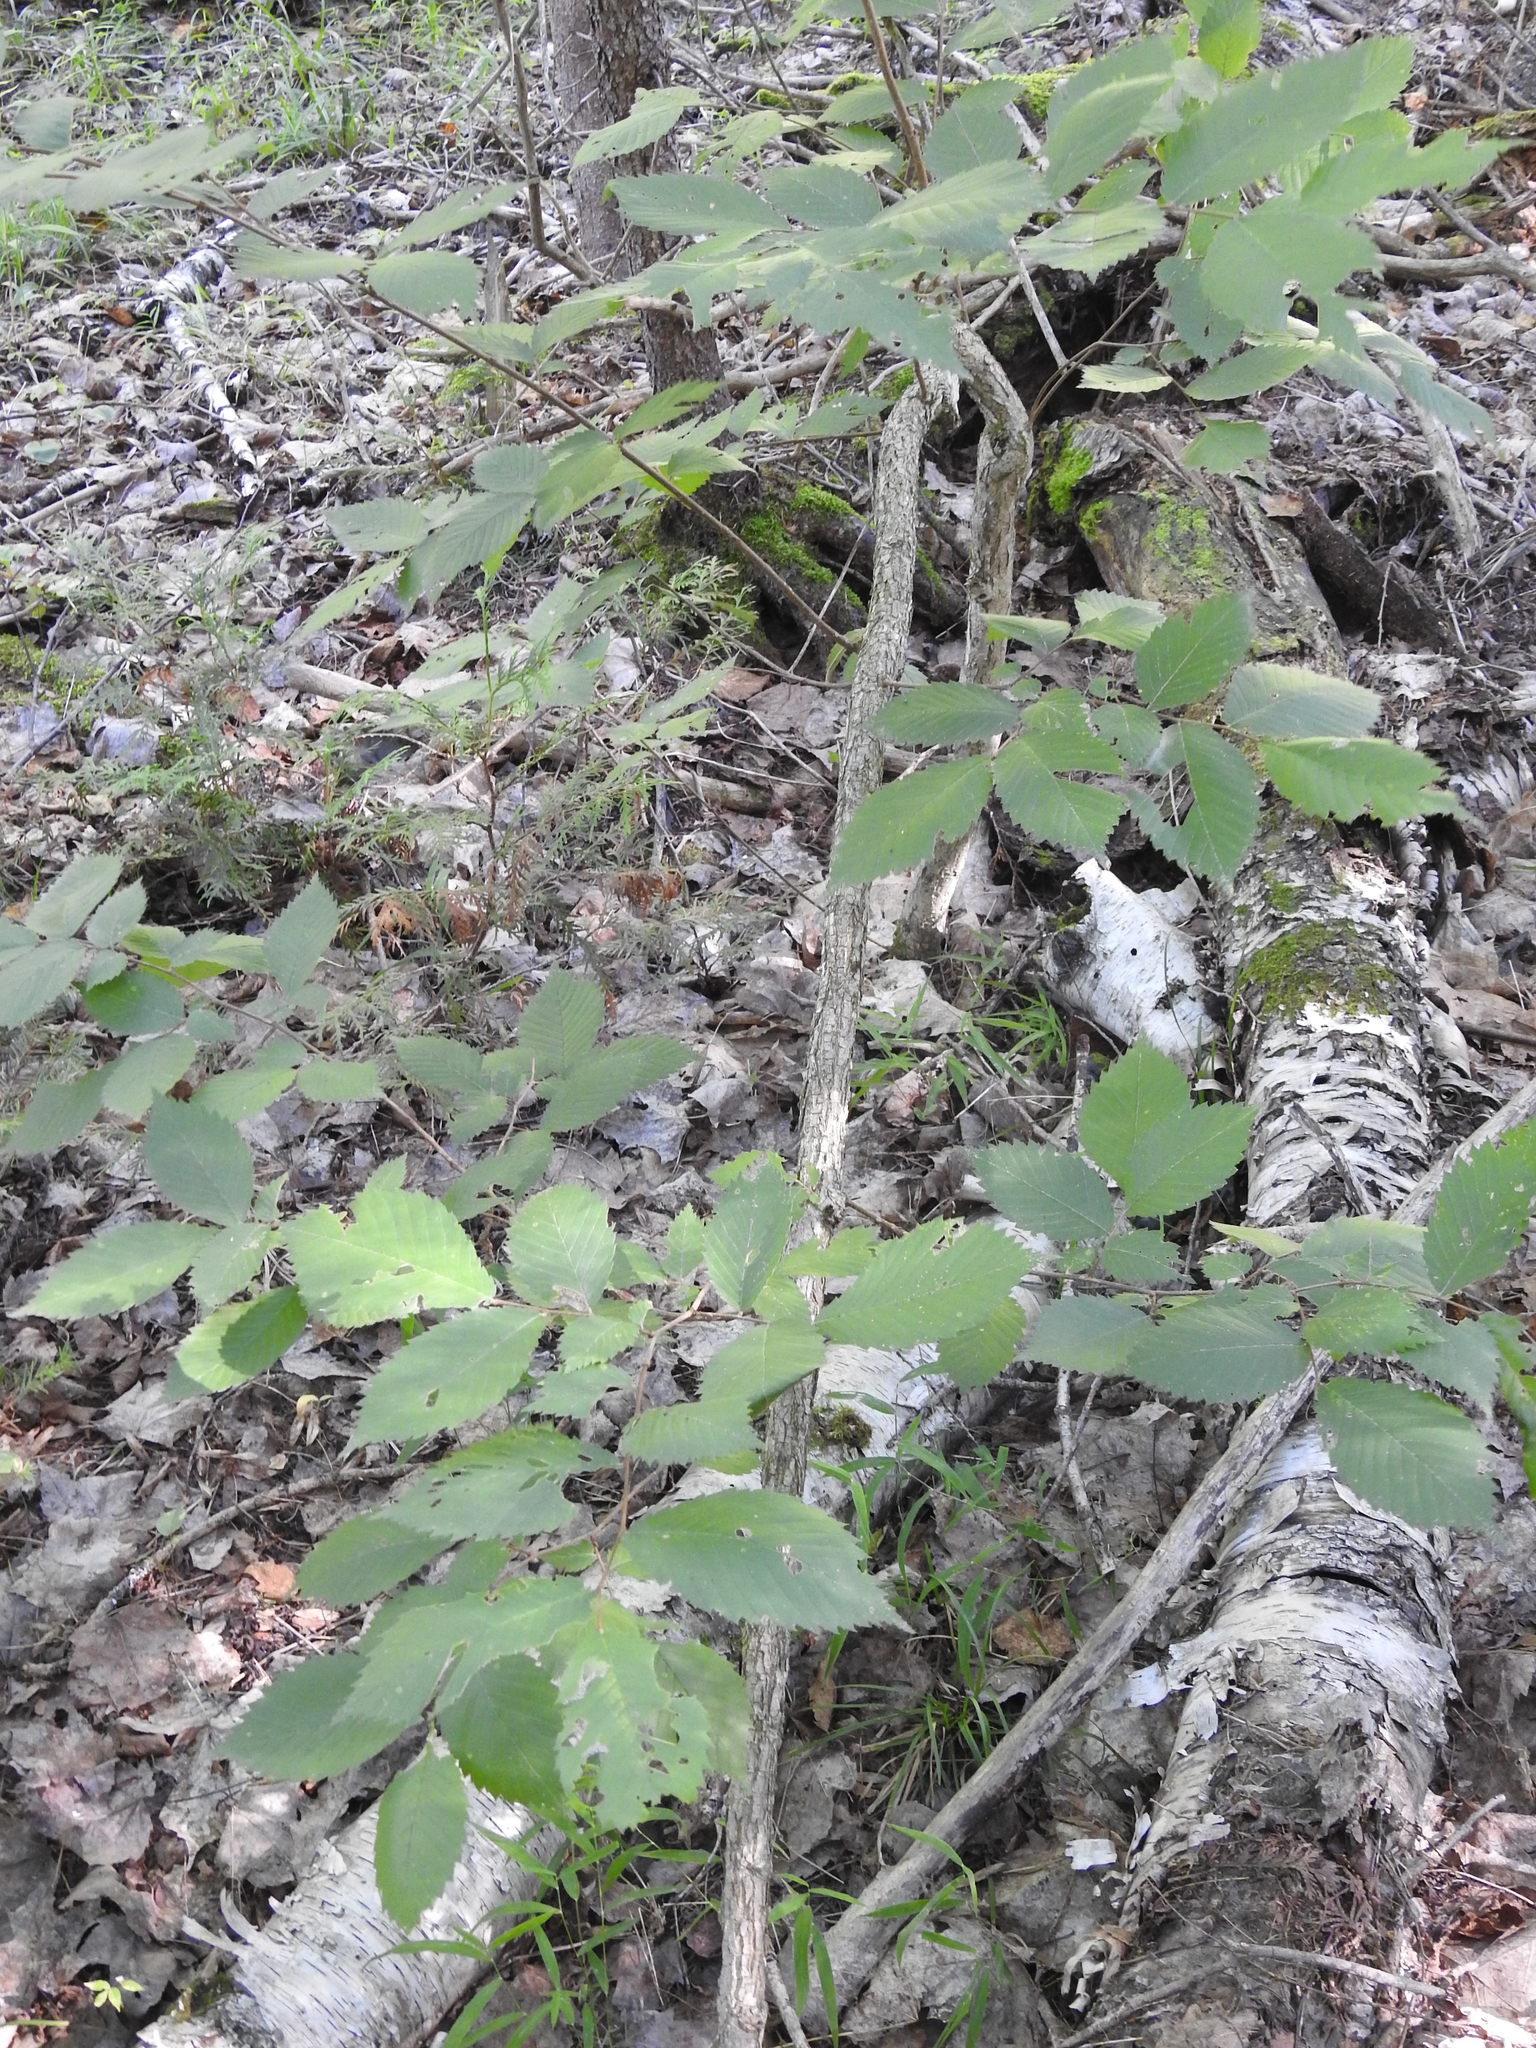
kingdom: Plantae
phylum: Tracheophyta
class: Magnoliopsida
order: Rosales
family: Ulmaceae
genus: Ulmus
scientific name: Ulmus americana
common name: American elm
